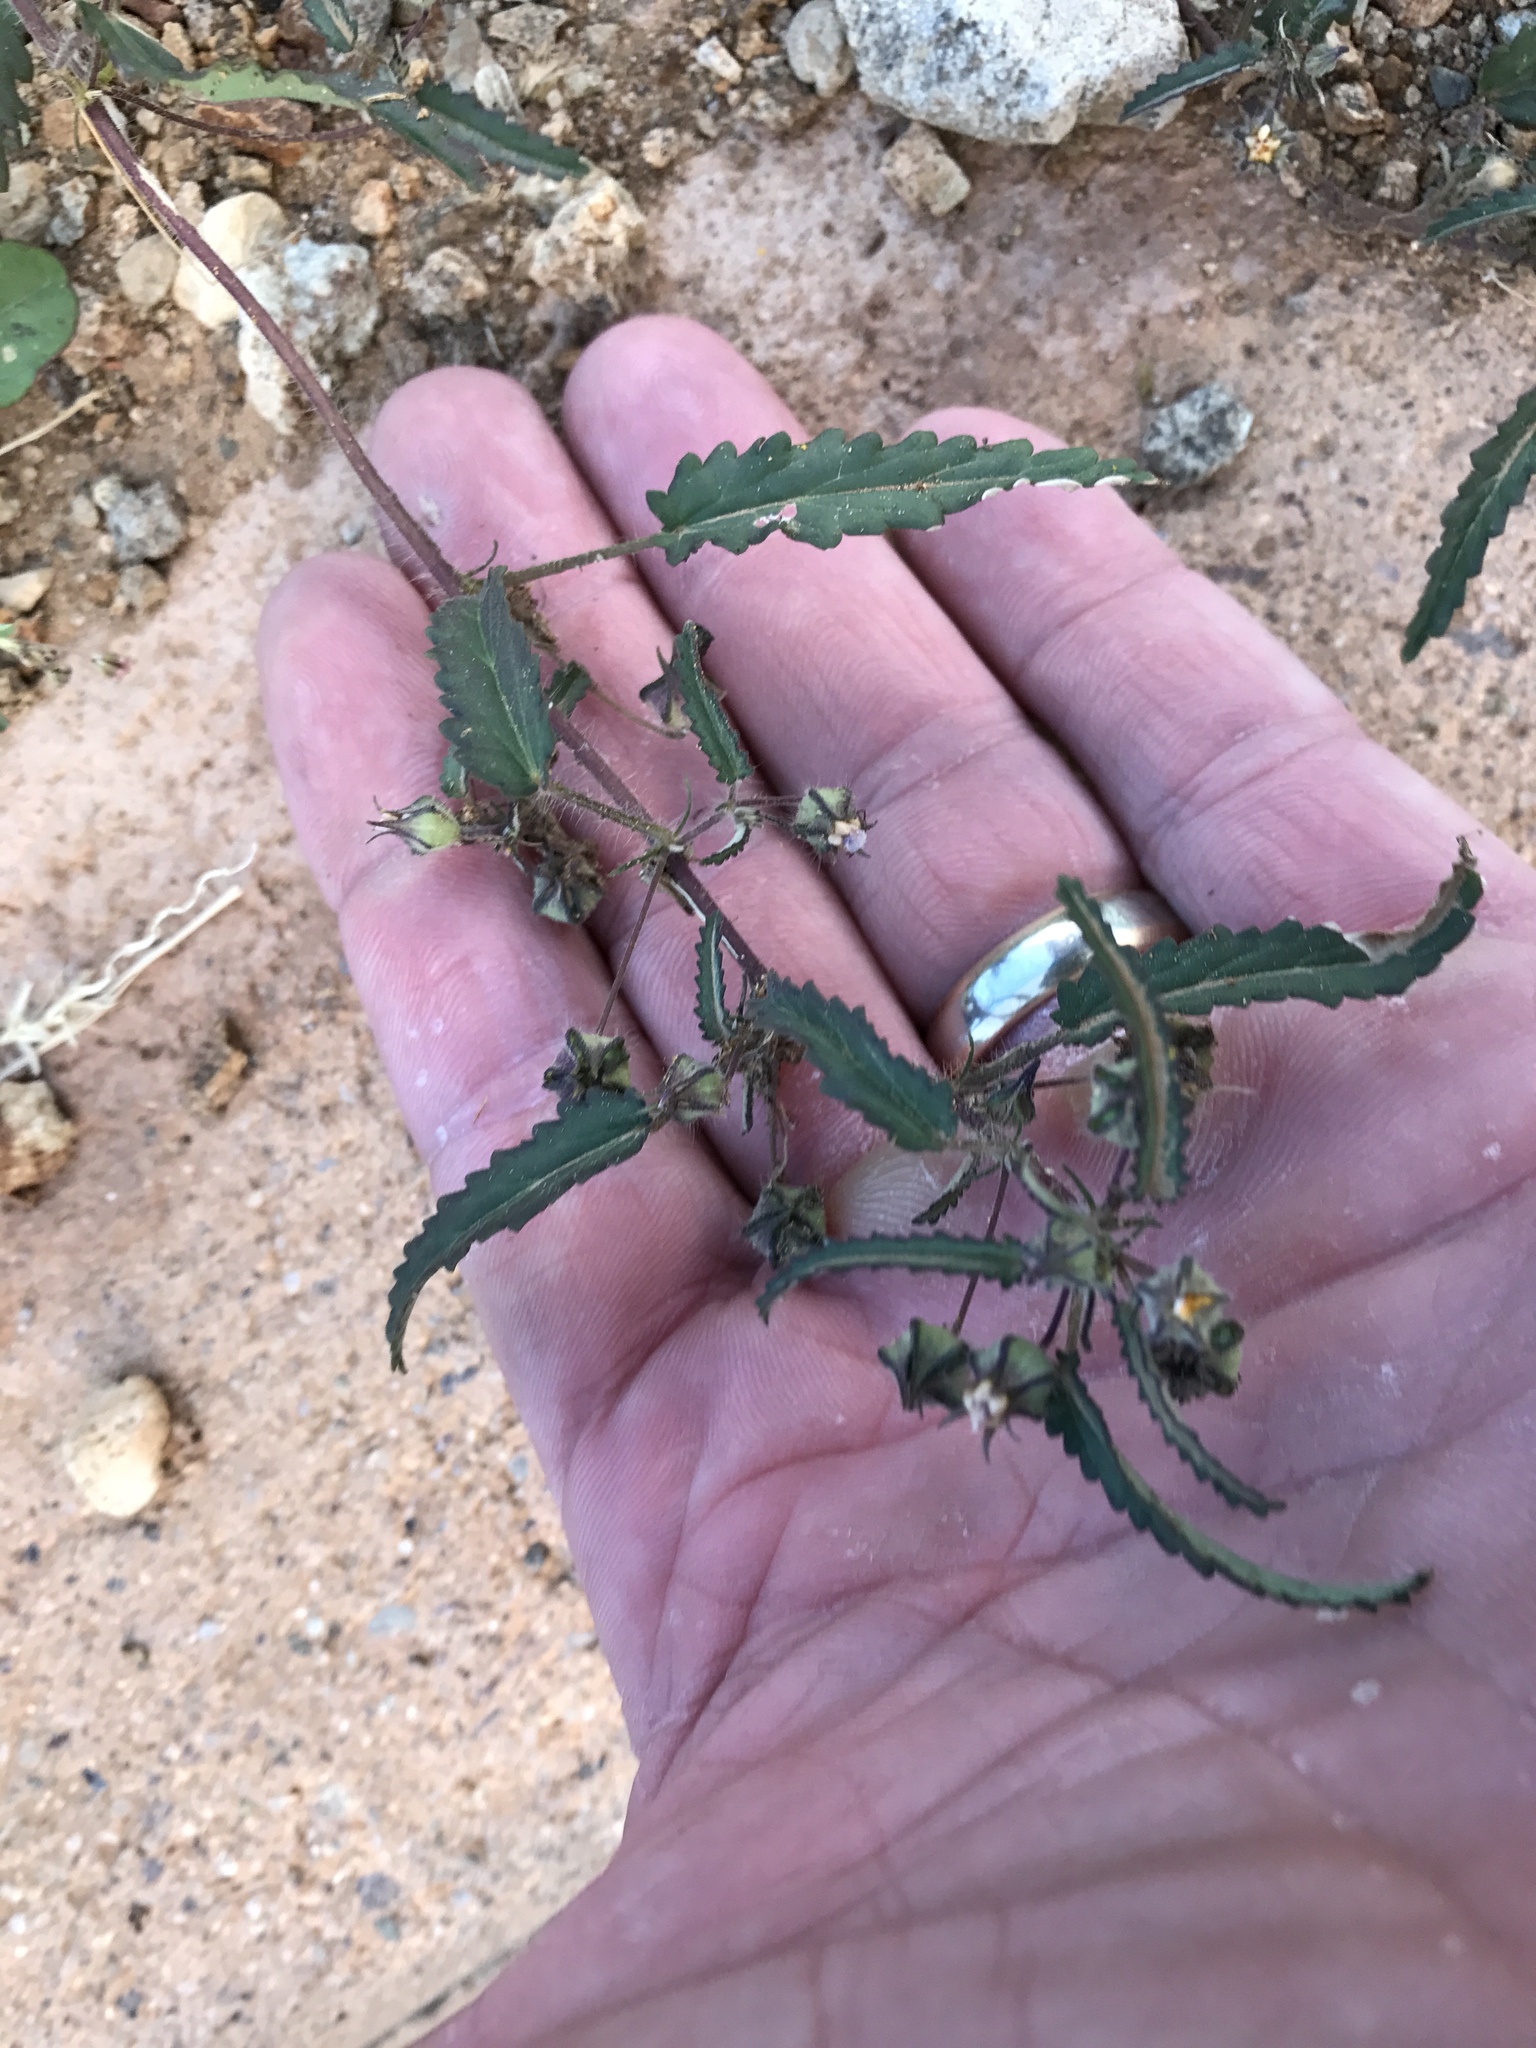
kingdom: Plantae
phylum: Tracheophyta
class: Magnoliopsida
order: Malvales
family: Malvaceae
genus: Sida
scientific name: Sida abutilifolia
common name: Spreading fanpetals
